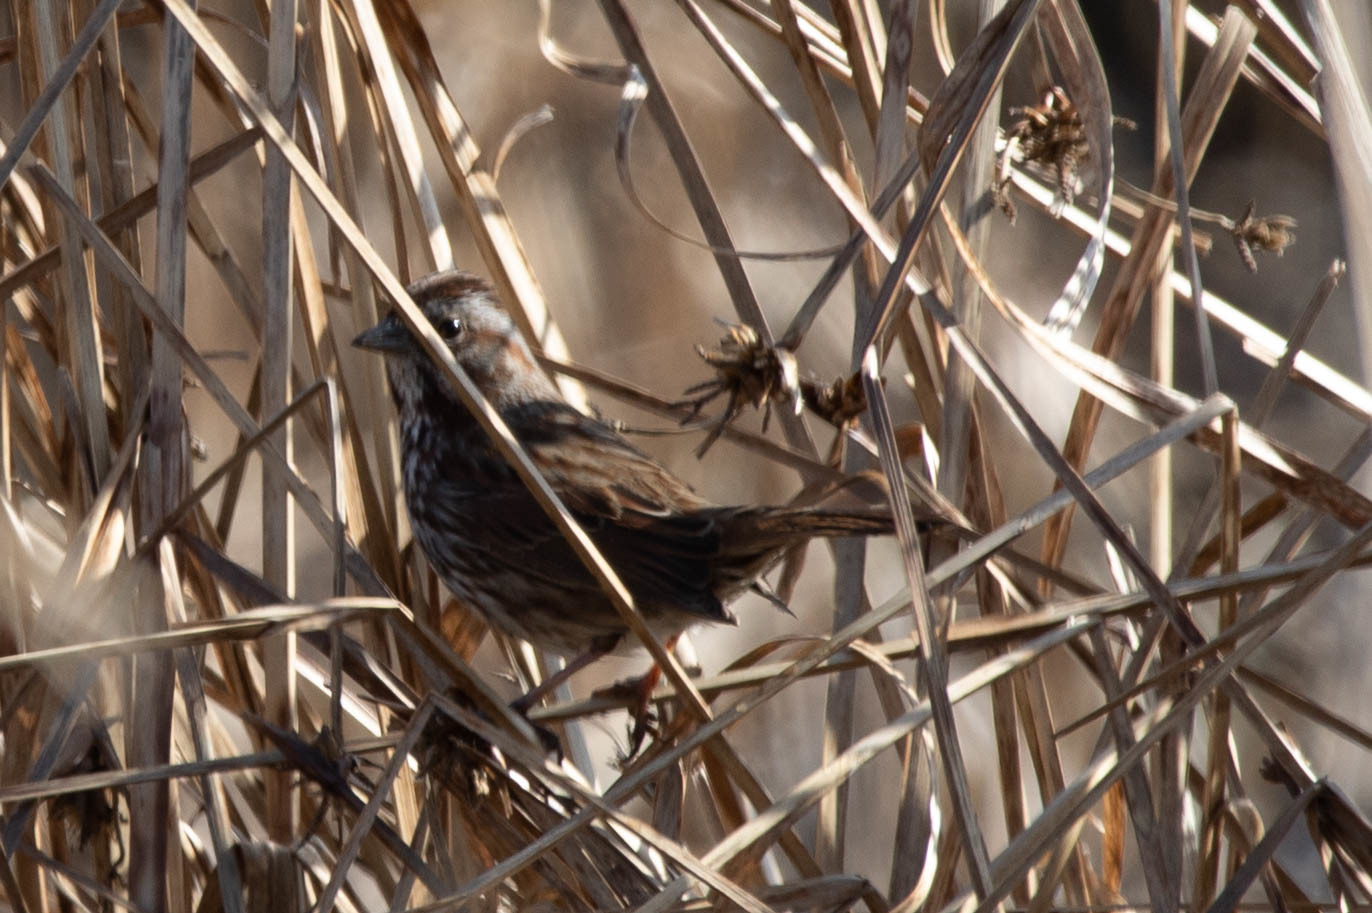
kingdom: Animalia
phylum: Chordata
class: Aves
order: Passeriformes
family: Passerellidae
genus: Melospiza
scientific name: Melospiza melodia
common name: Song sparrow
